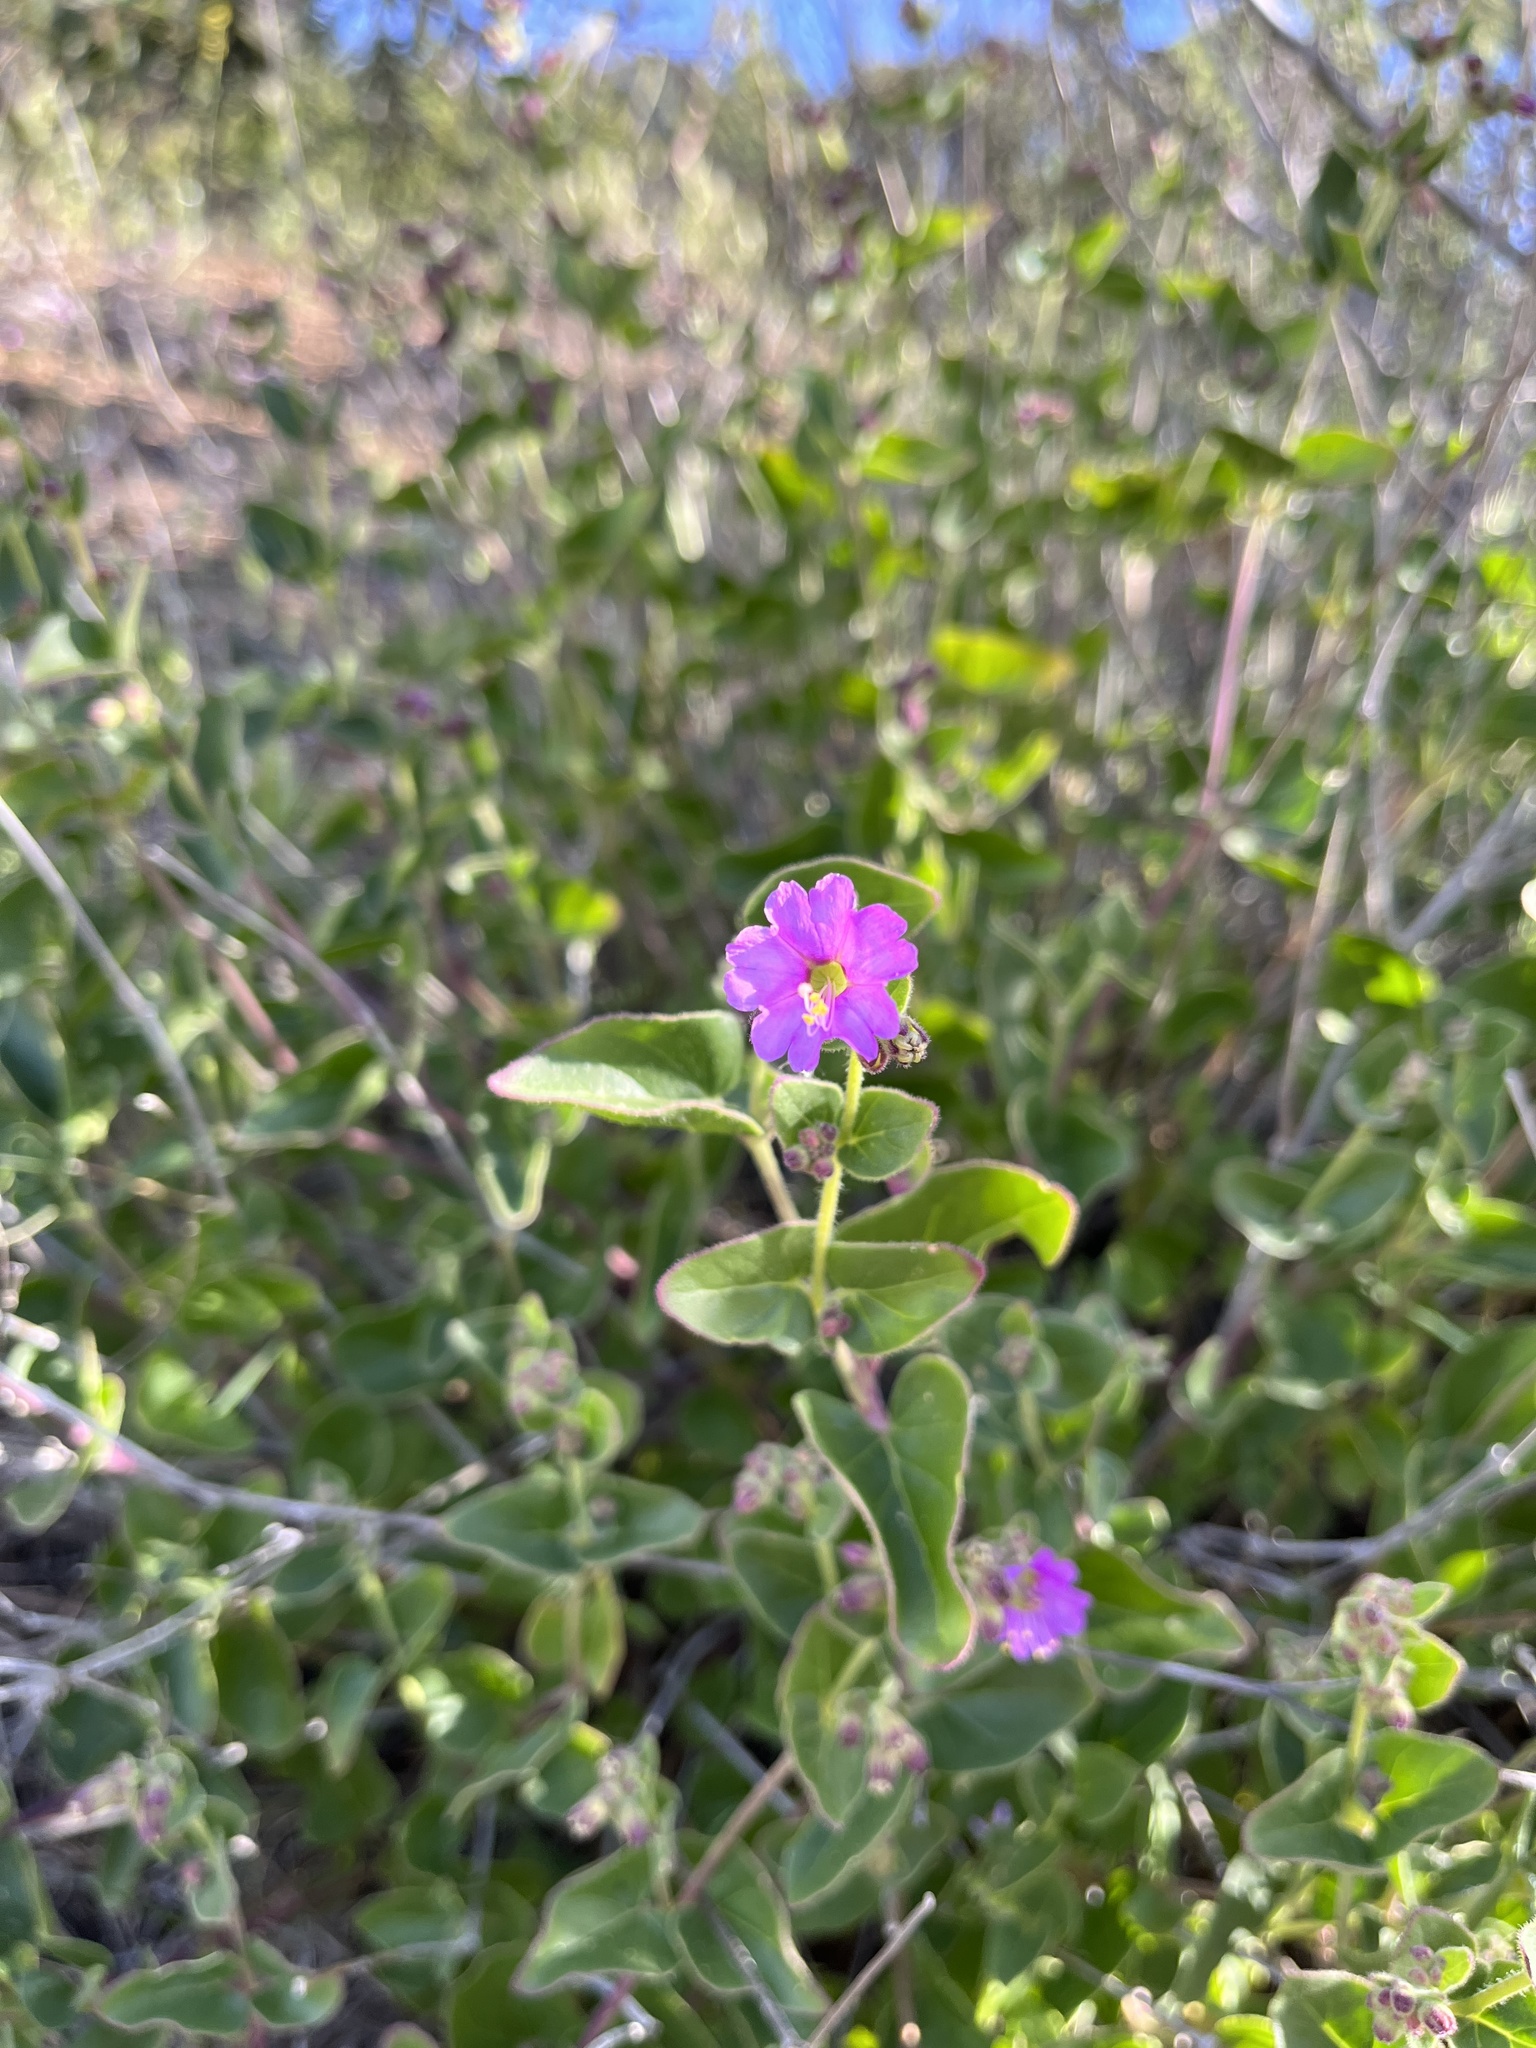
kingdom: Plantae
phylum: Tracheophyta
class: Magnoliopsida
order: Caryophyllales
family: Nyctaginaceae
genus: Mirabilis
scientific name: Mirabilis laevis
